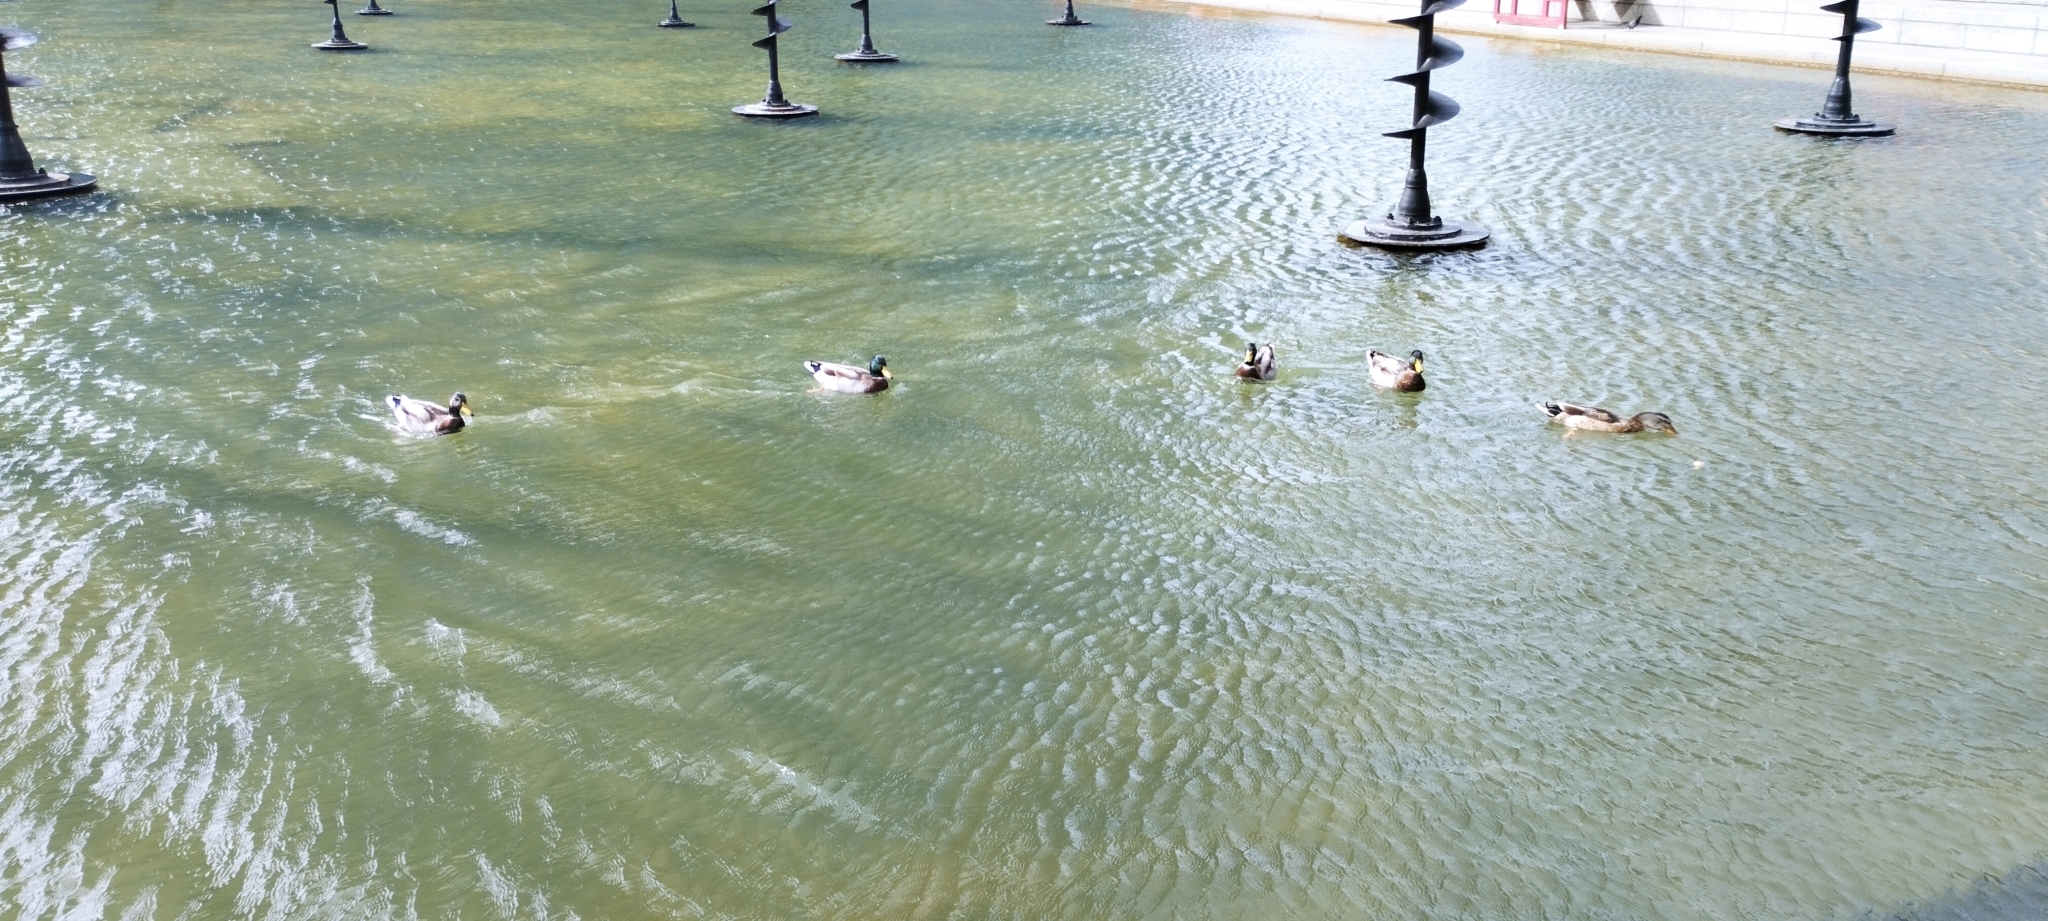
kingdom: Animalia
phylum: Chordata
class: Aves
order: Anseriformes
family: Anatidae
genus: Anas
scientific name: Anas platyrhynchos
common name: Mallard
